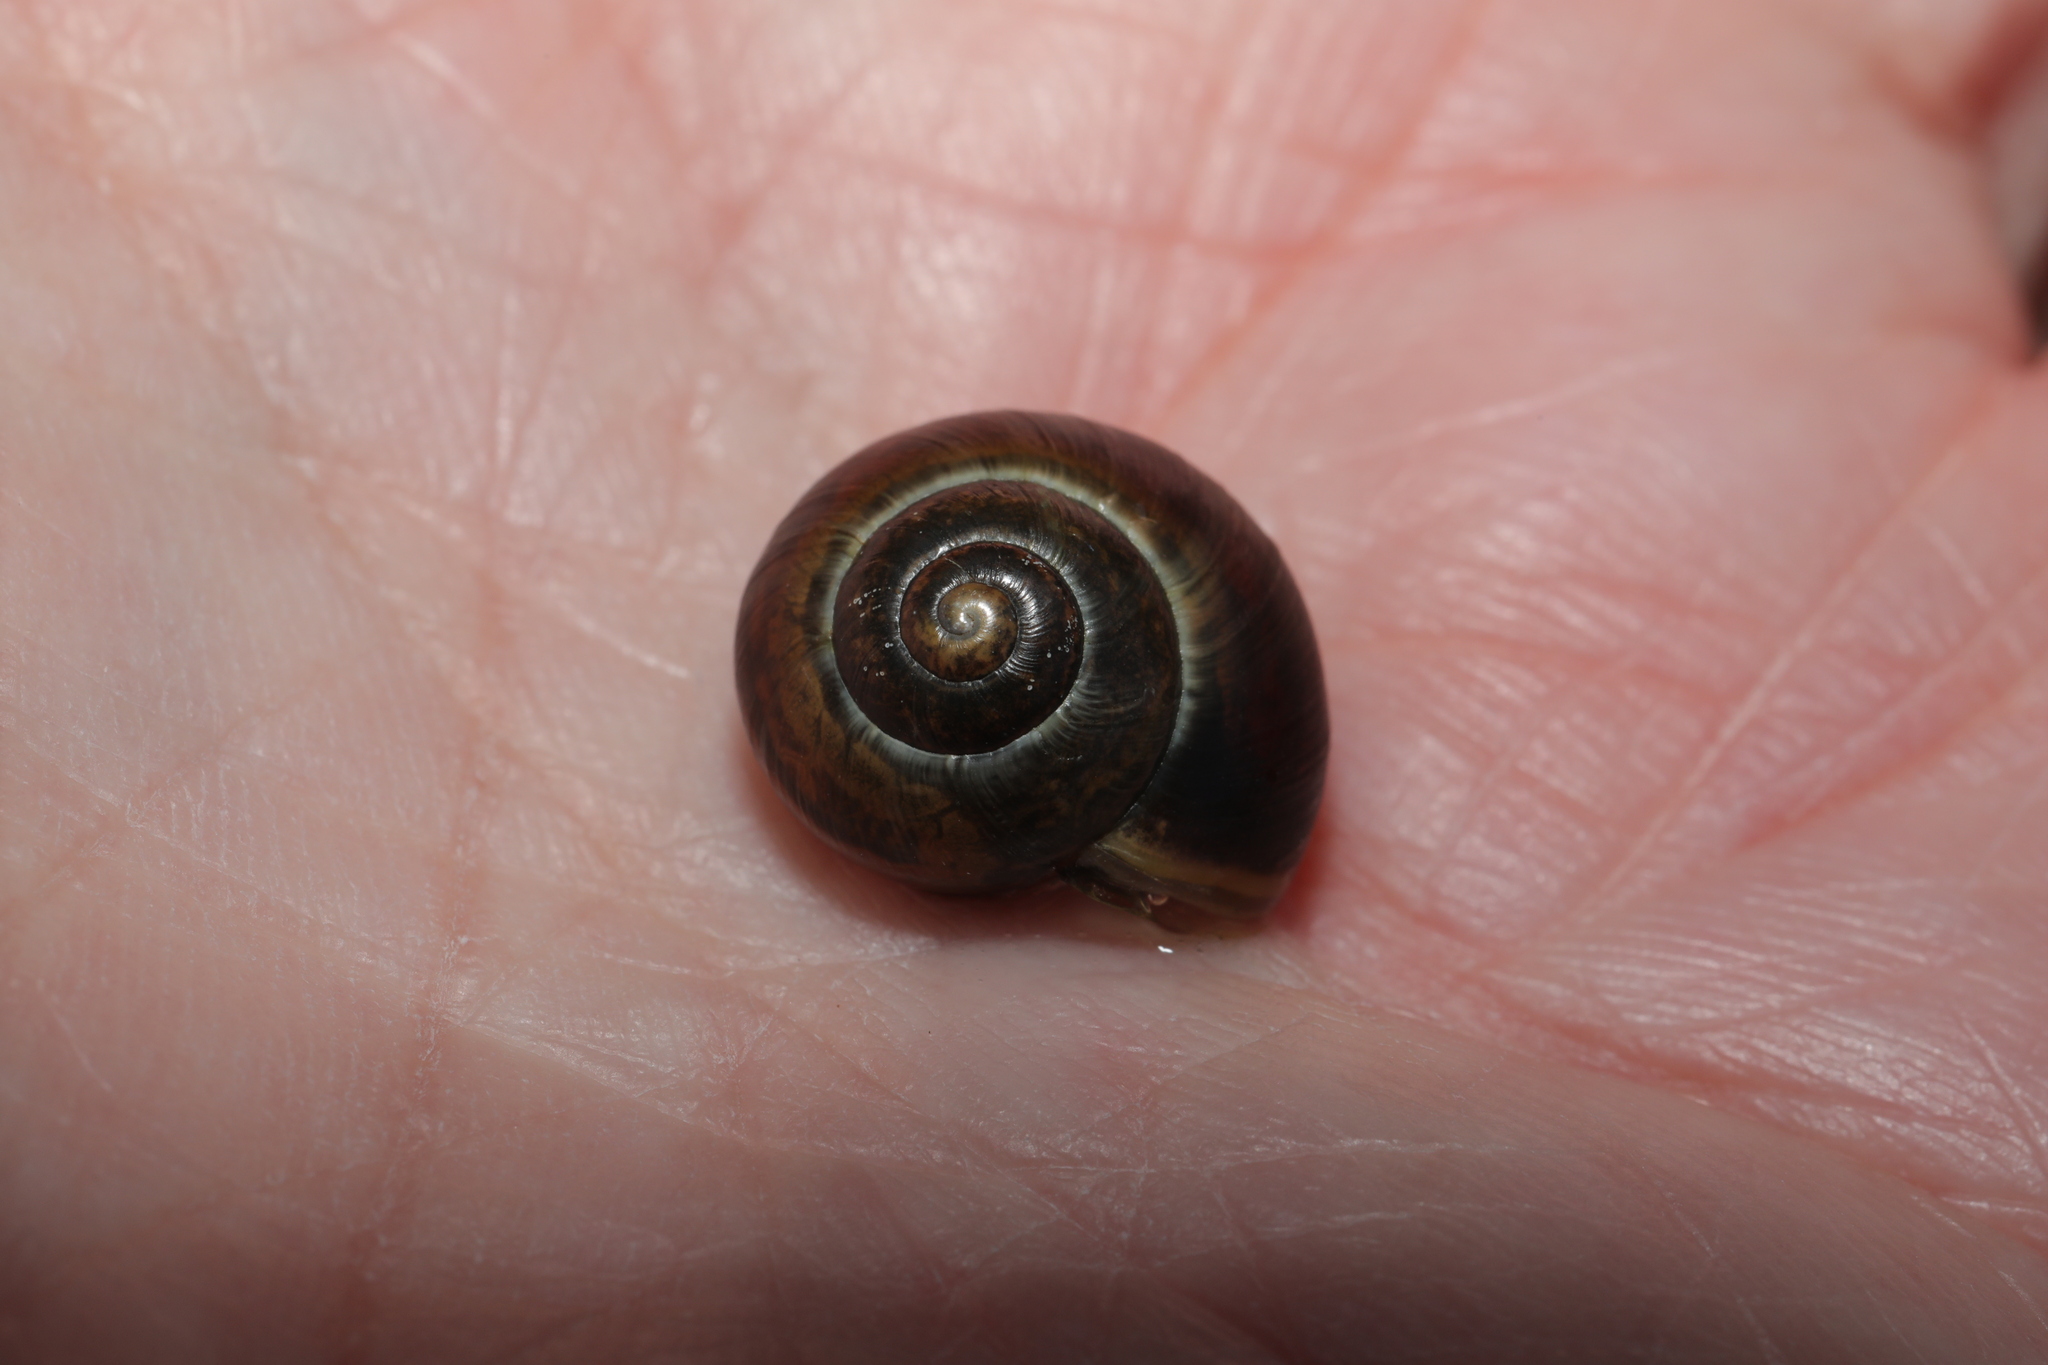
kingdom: Animalia
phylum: Mollusca
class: Gastropoda
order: Stylommatophora
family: Hygromiidae
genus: Monacha
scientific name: Monacha cantiana
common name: Kentish snail
